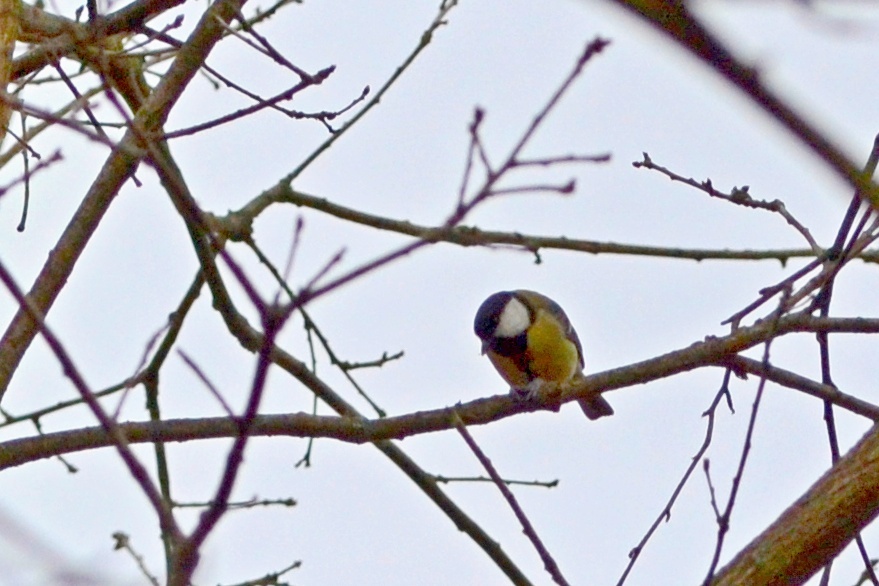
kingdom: Animalia
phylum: Chordata
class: Aves
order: Passeriformes
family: Paridae
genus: Parus
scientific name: Parus major
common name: Great tit
